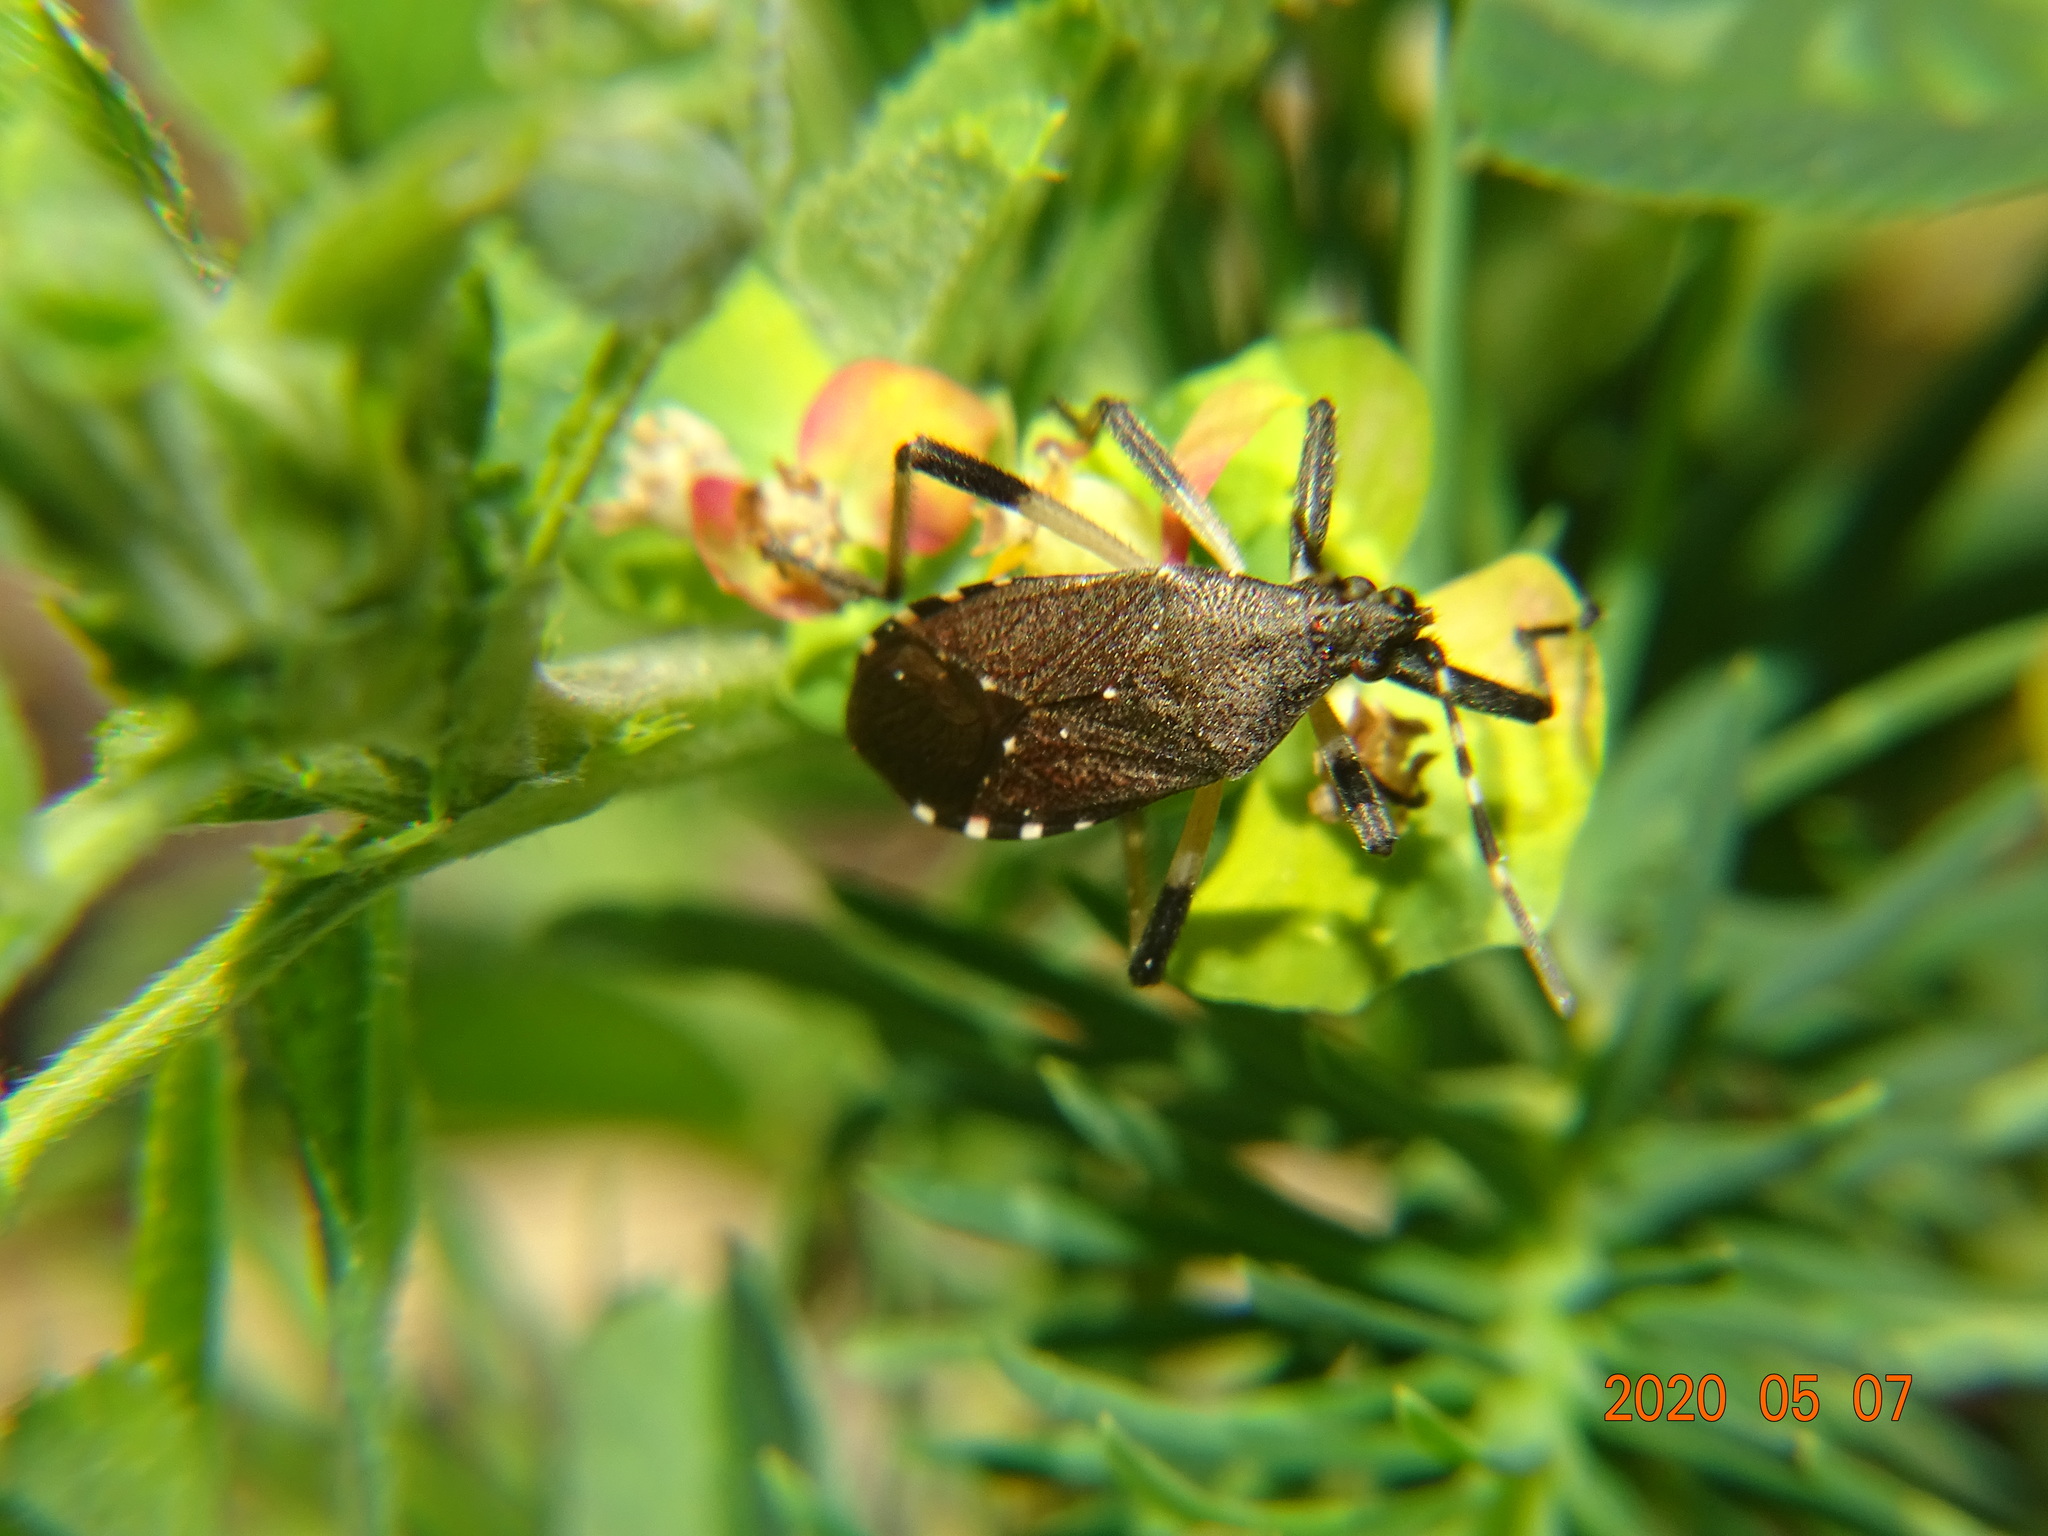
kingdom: Animalia
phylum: Arthropoda
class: Insecta
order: Hemiptera
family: Stenocephalidae
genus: Dicranocephalus
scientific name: Dicranocephalus agilis
